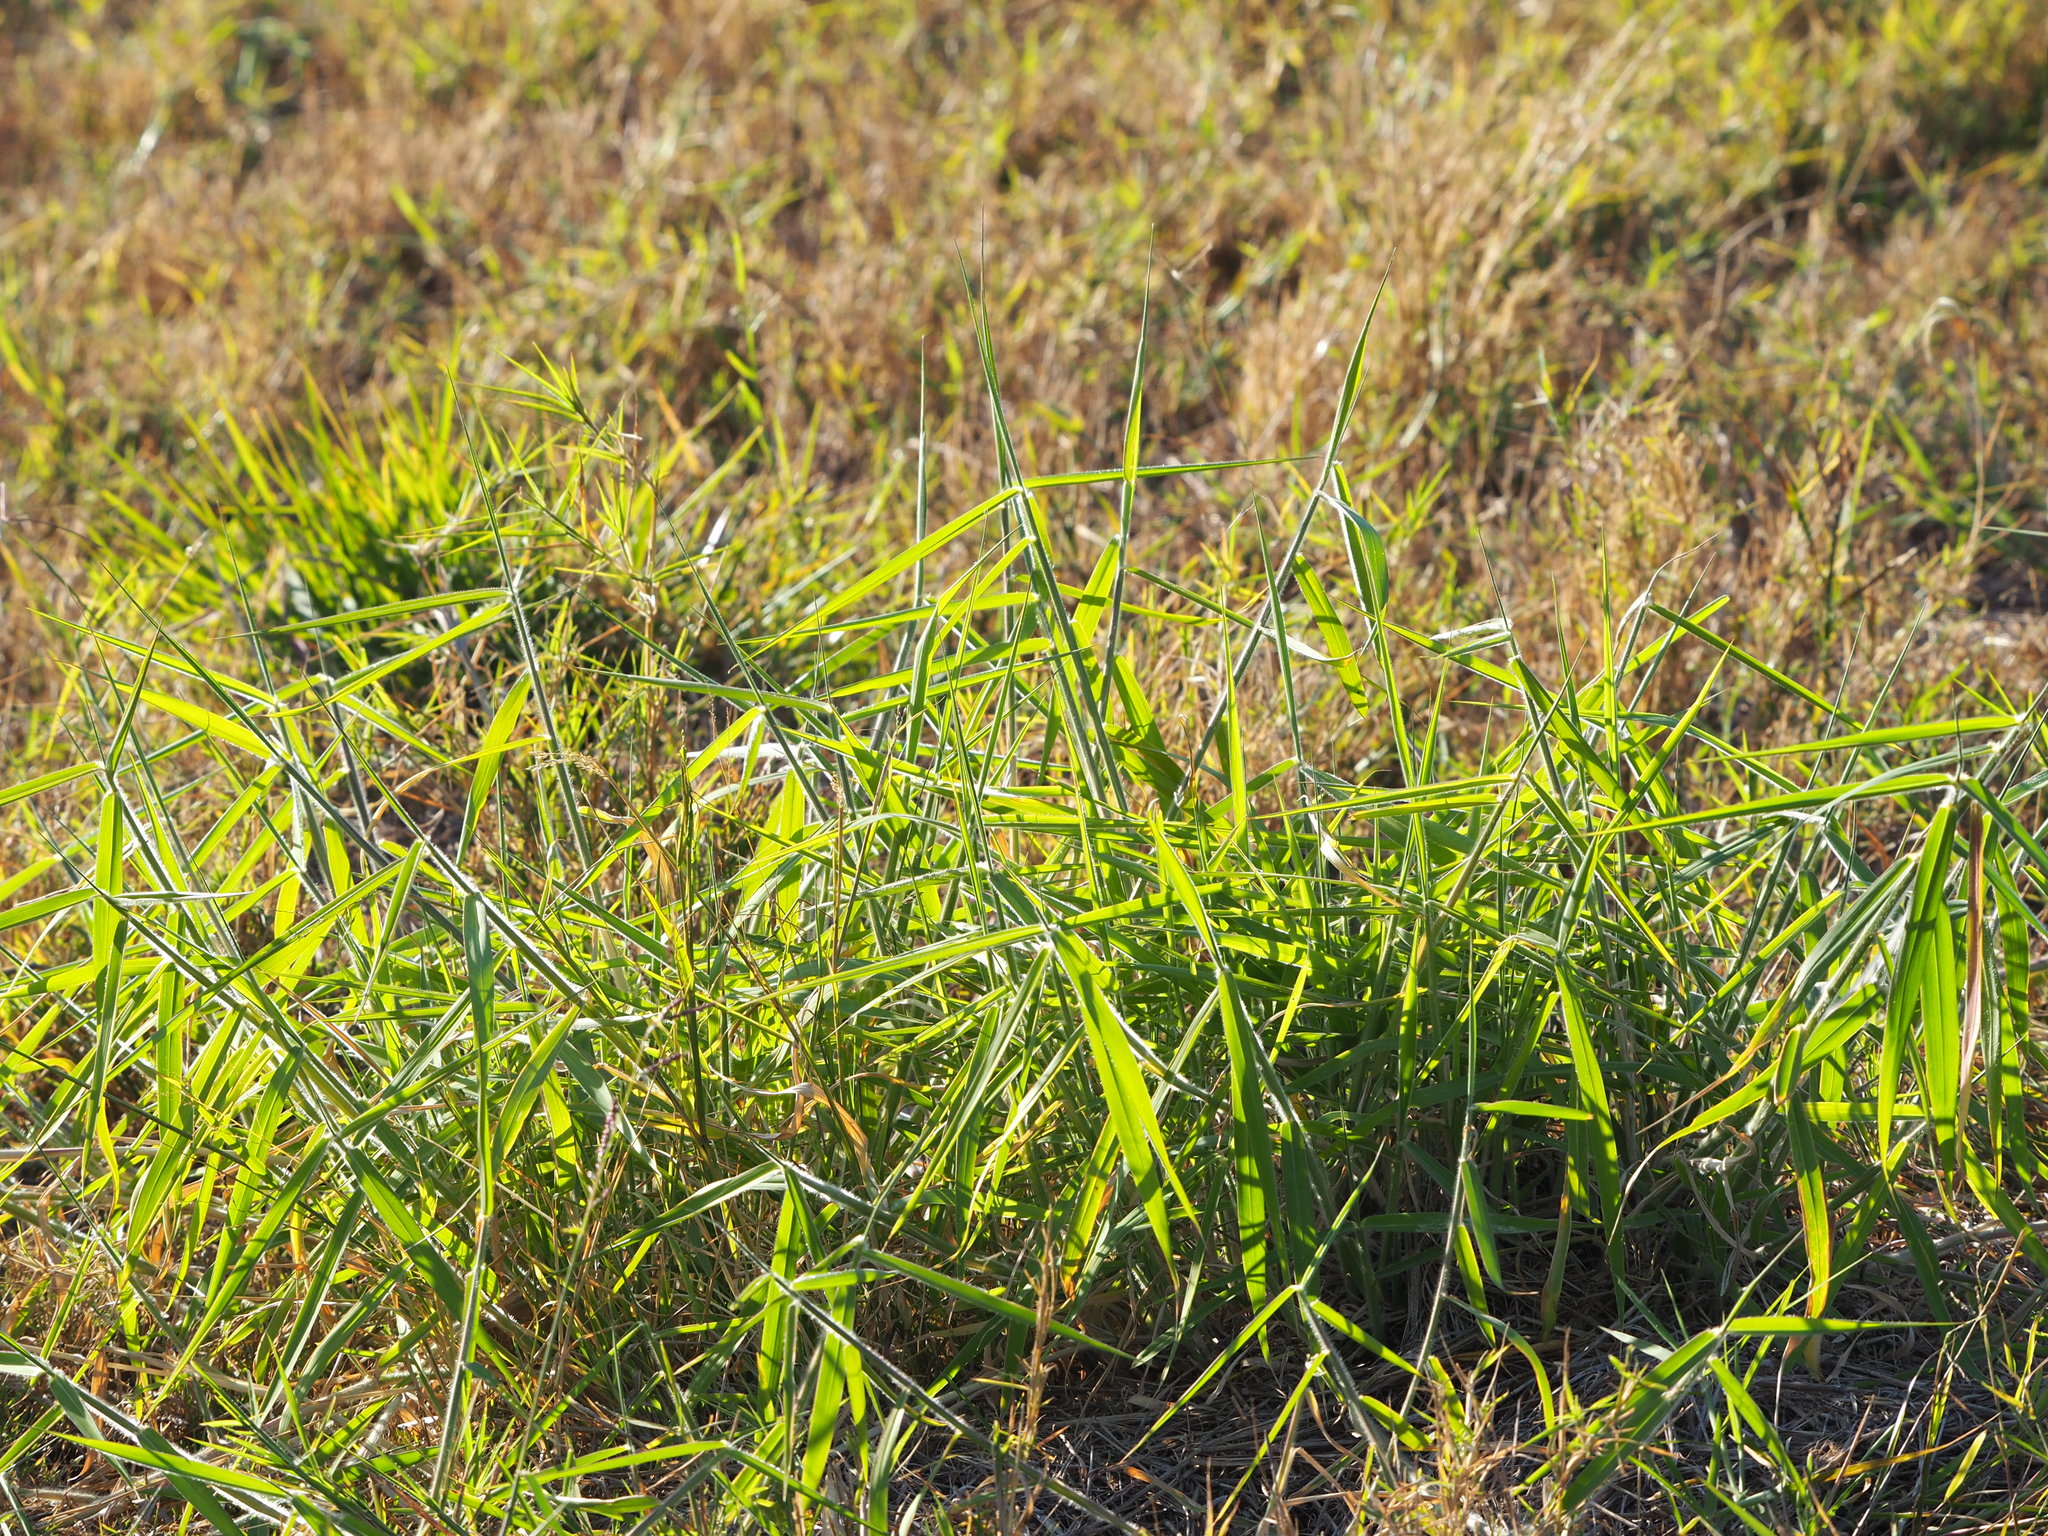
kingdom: Plantae
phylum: Tracheophyta
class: Liliopsida
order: Poales
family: Poaceae
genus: Urochloa
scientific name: Urochloa mutica
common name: Para grass
